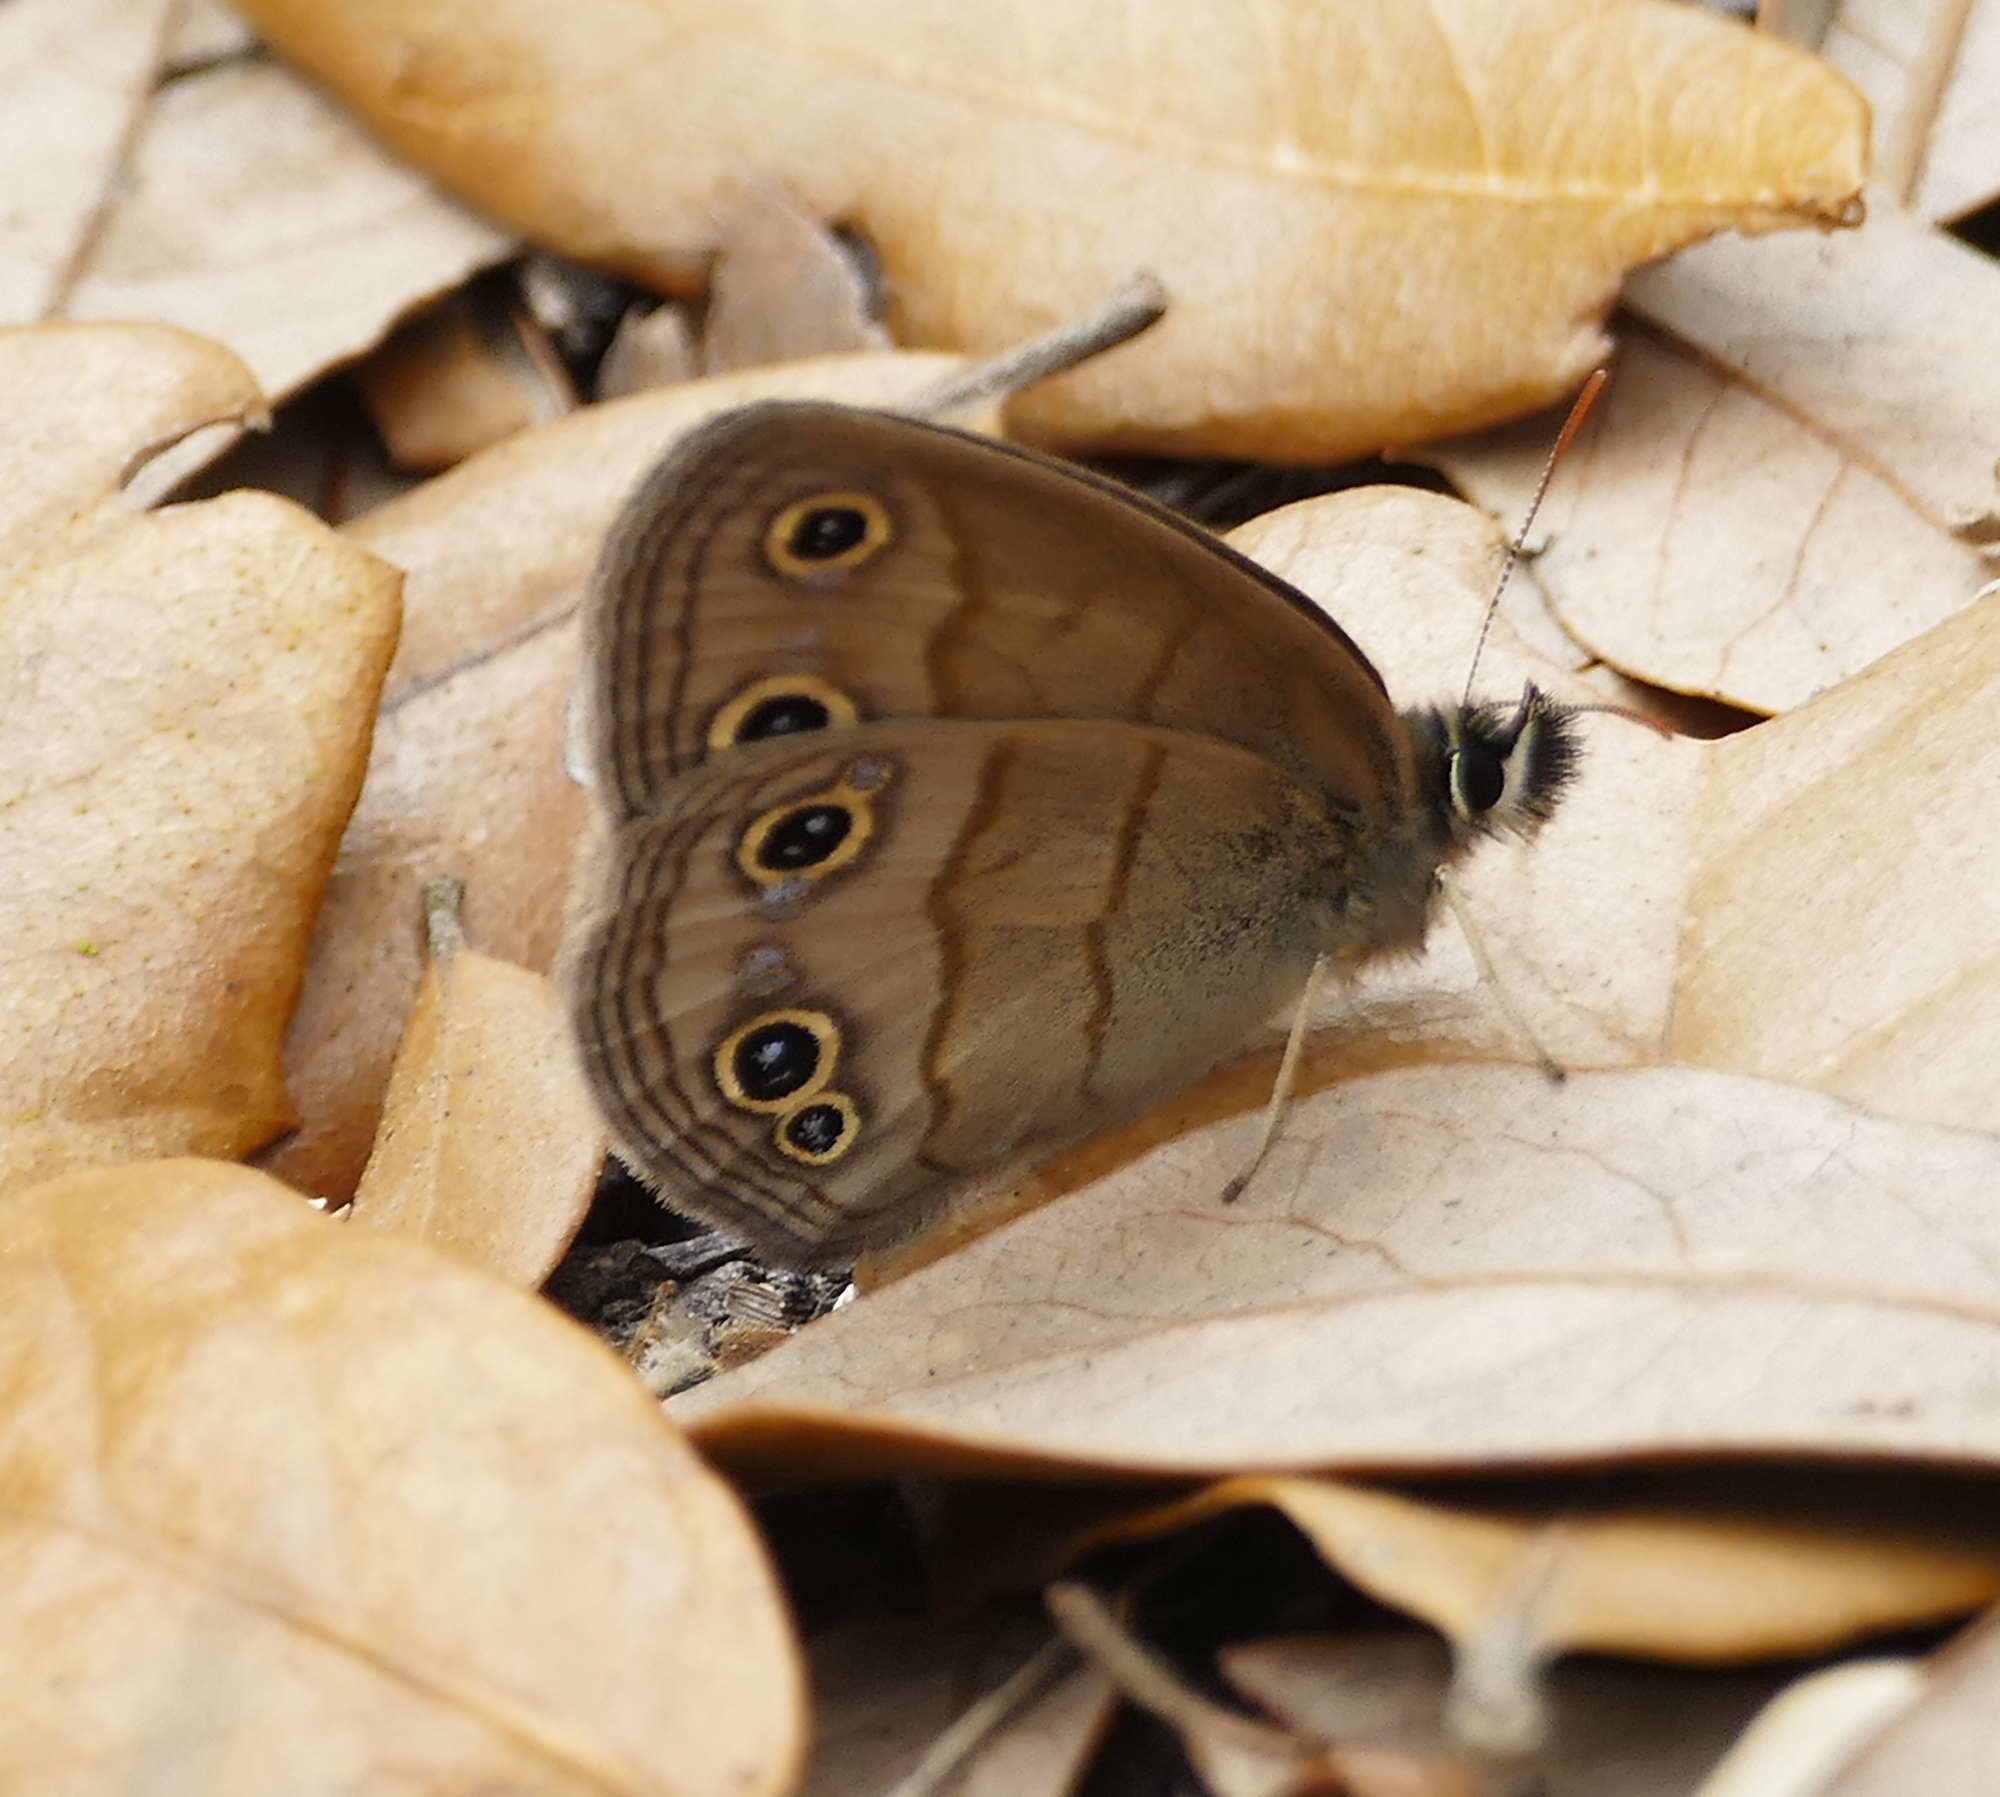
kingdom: Animalia
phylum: Arthropoda
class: Insecta
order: Lepidoptera
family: Nymphalidae
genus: Euptychia
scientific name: Euptychia cymela
